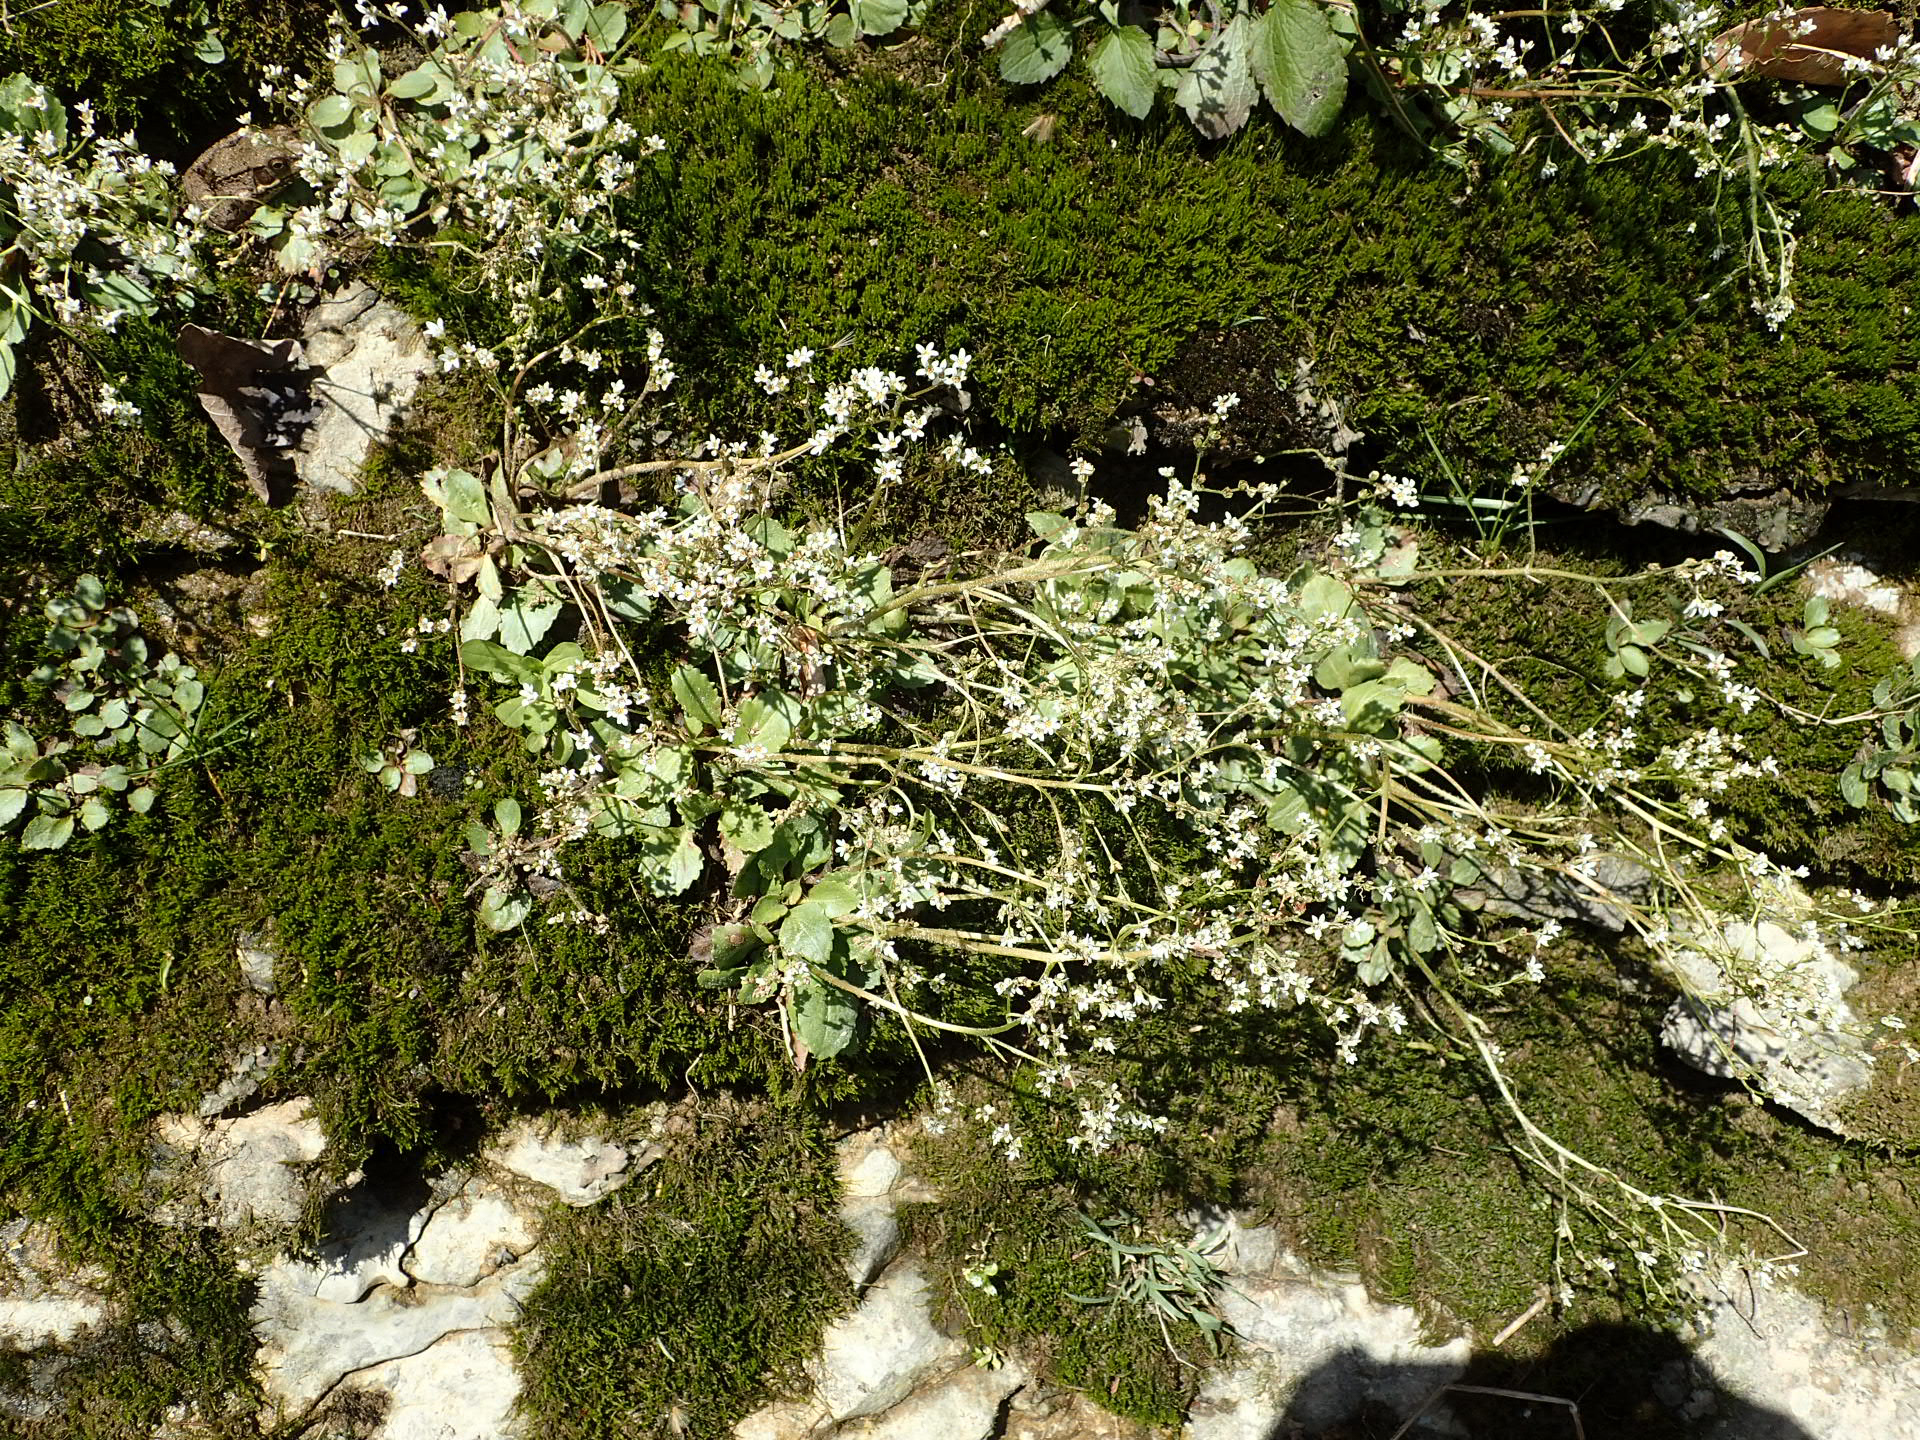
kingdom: Plantae
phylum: Tracheophyta
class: Magnoliopsida
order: Saxifragales
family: Saxifragaceae
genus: Micranthes
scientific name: Micranthes virginiensis
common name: Early saxifrage
